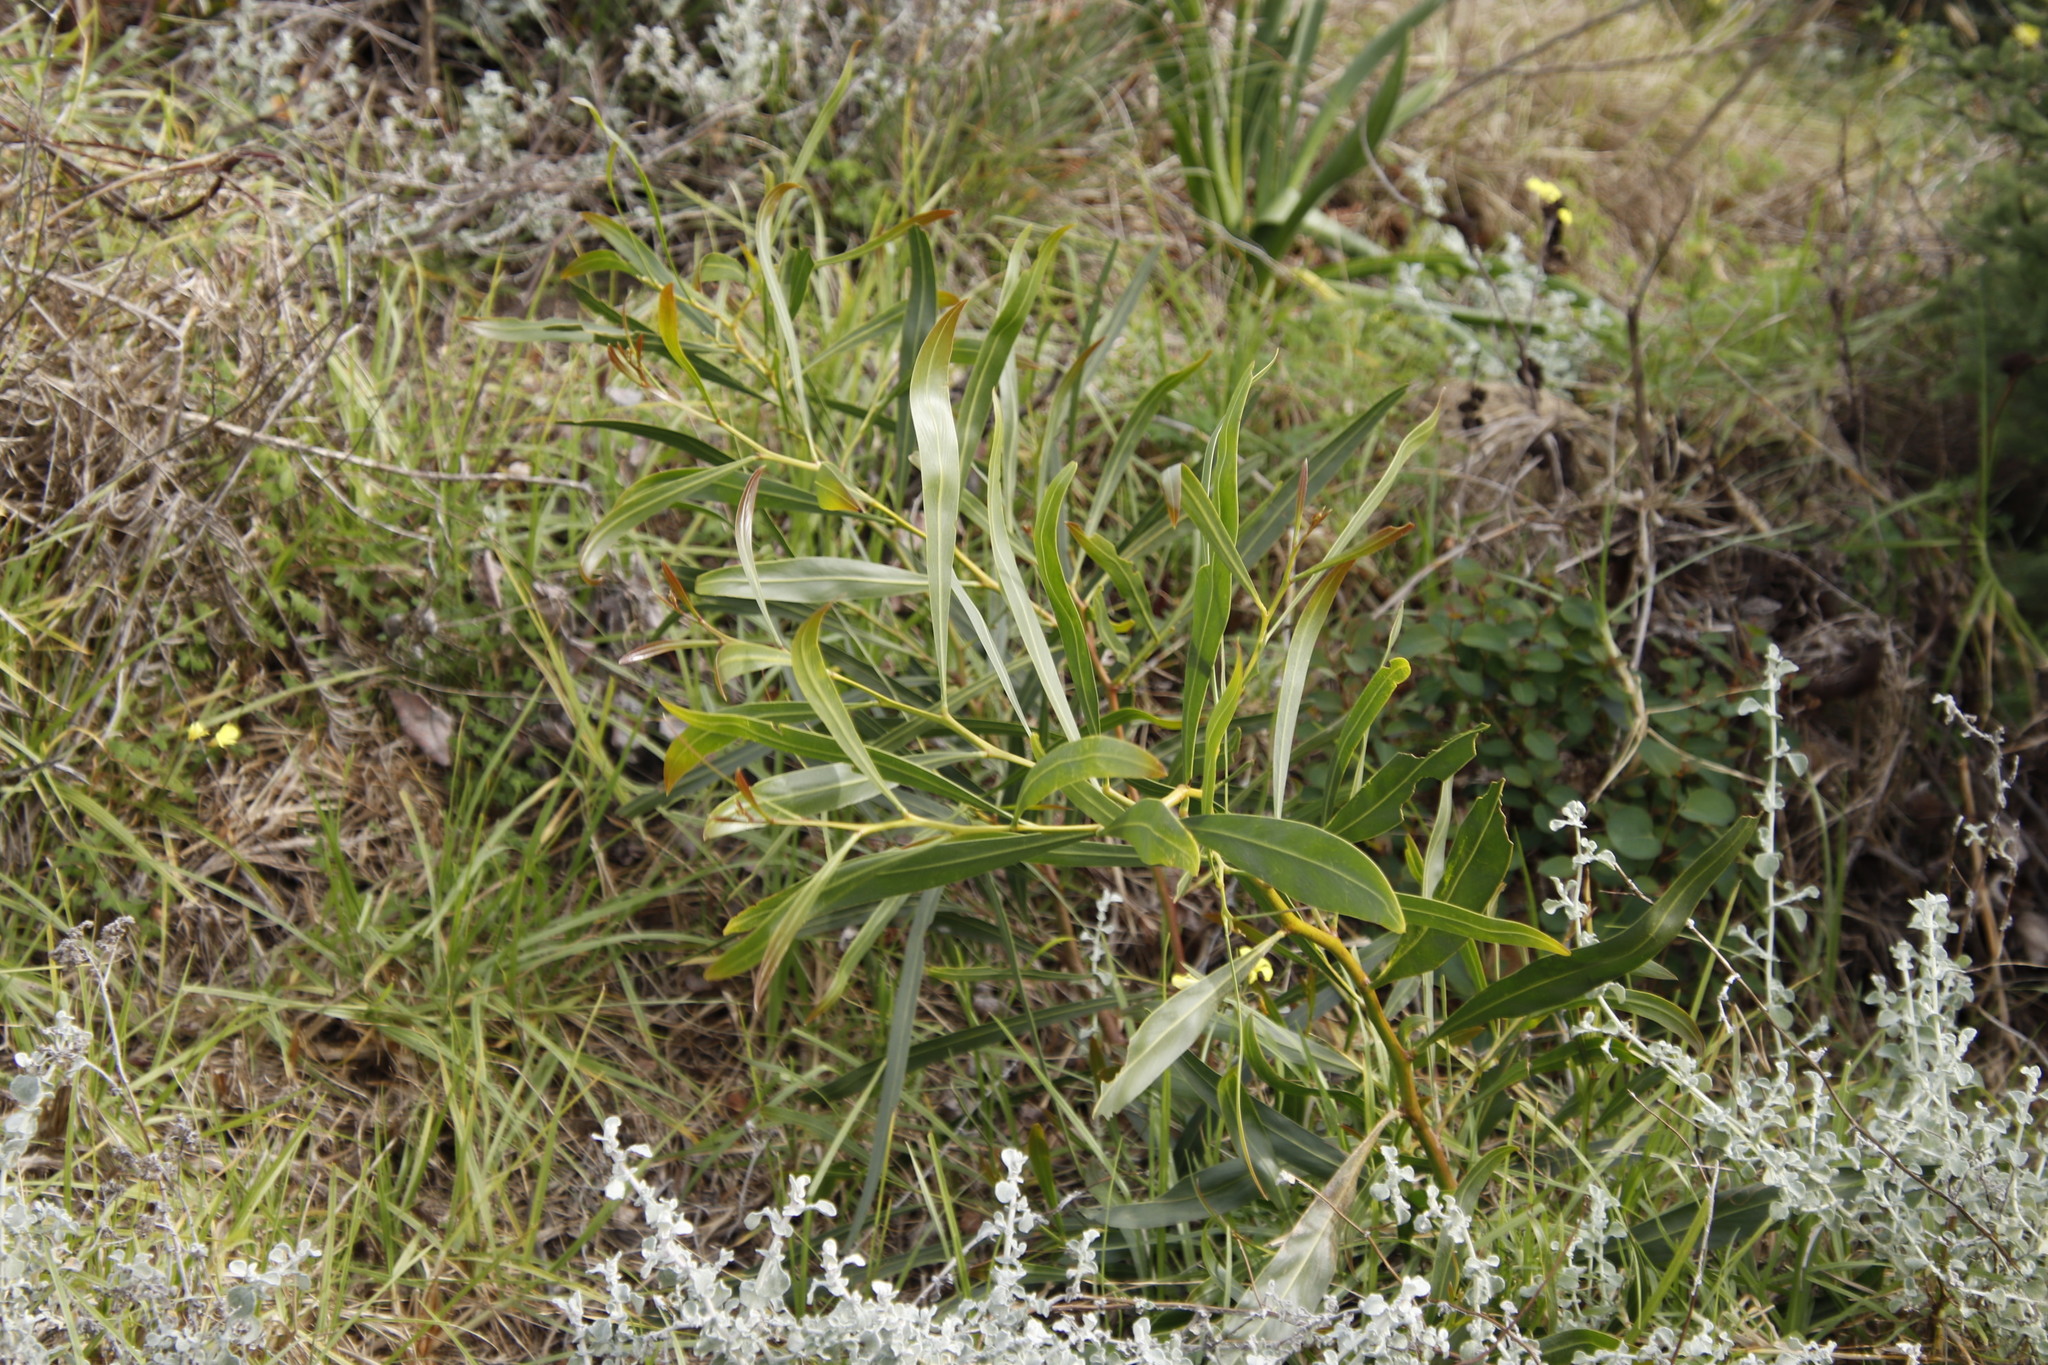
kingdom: Plantae
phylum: Tracheophyta
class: Magnoliopsida
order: Fabales
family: Fabaceae
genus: Acacia
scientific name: Acacia saligna
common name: Orange wattle
